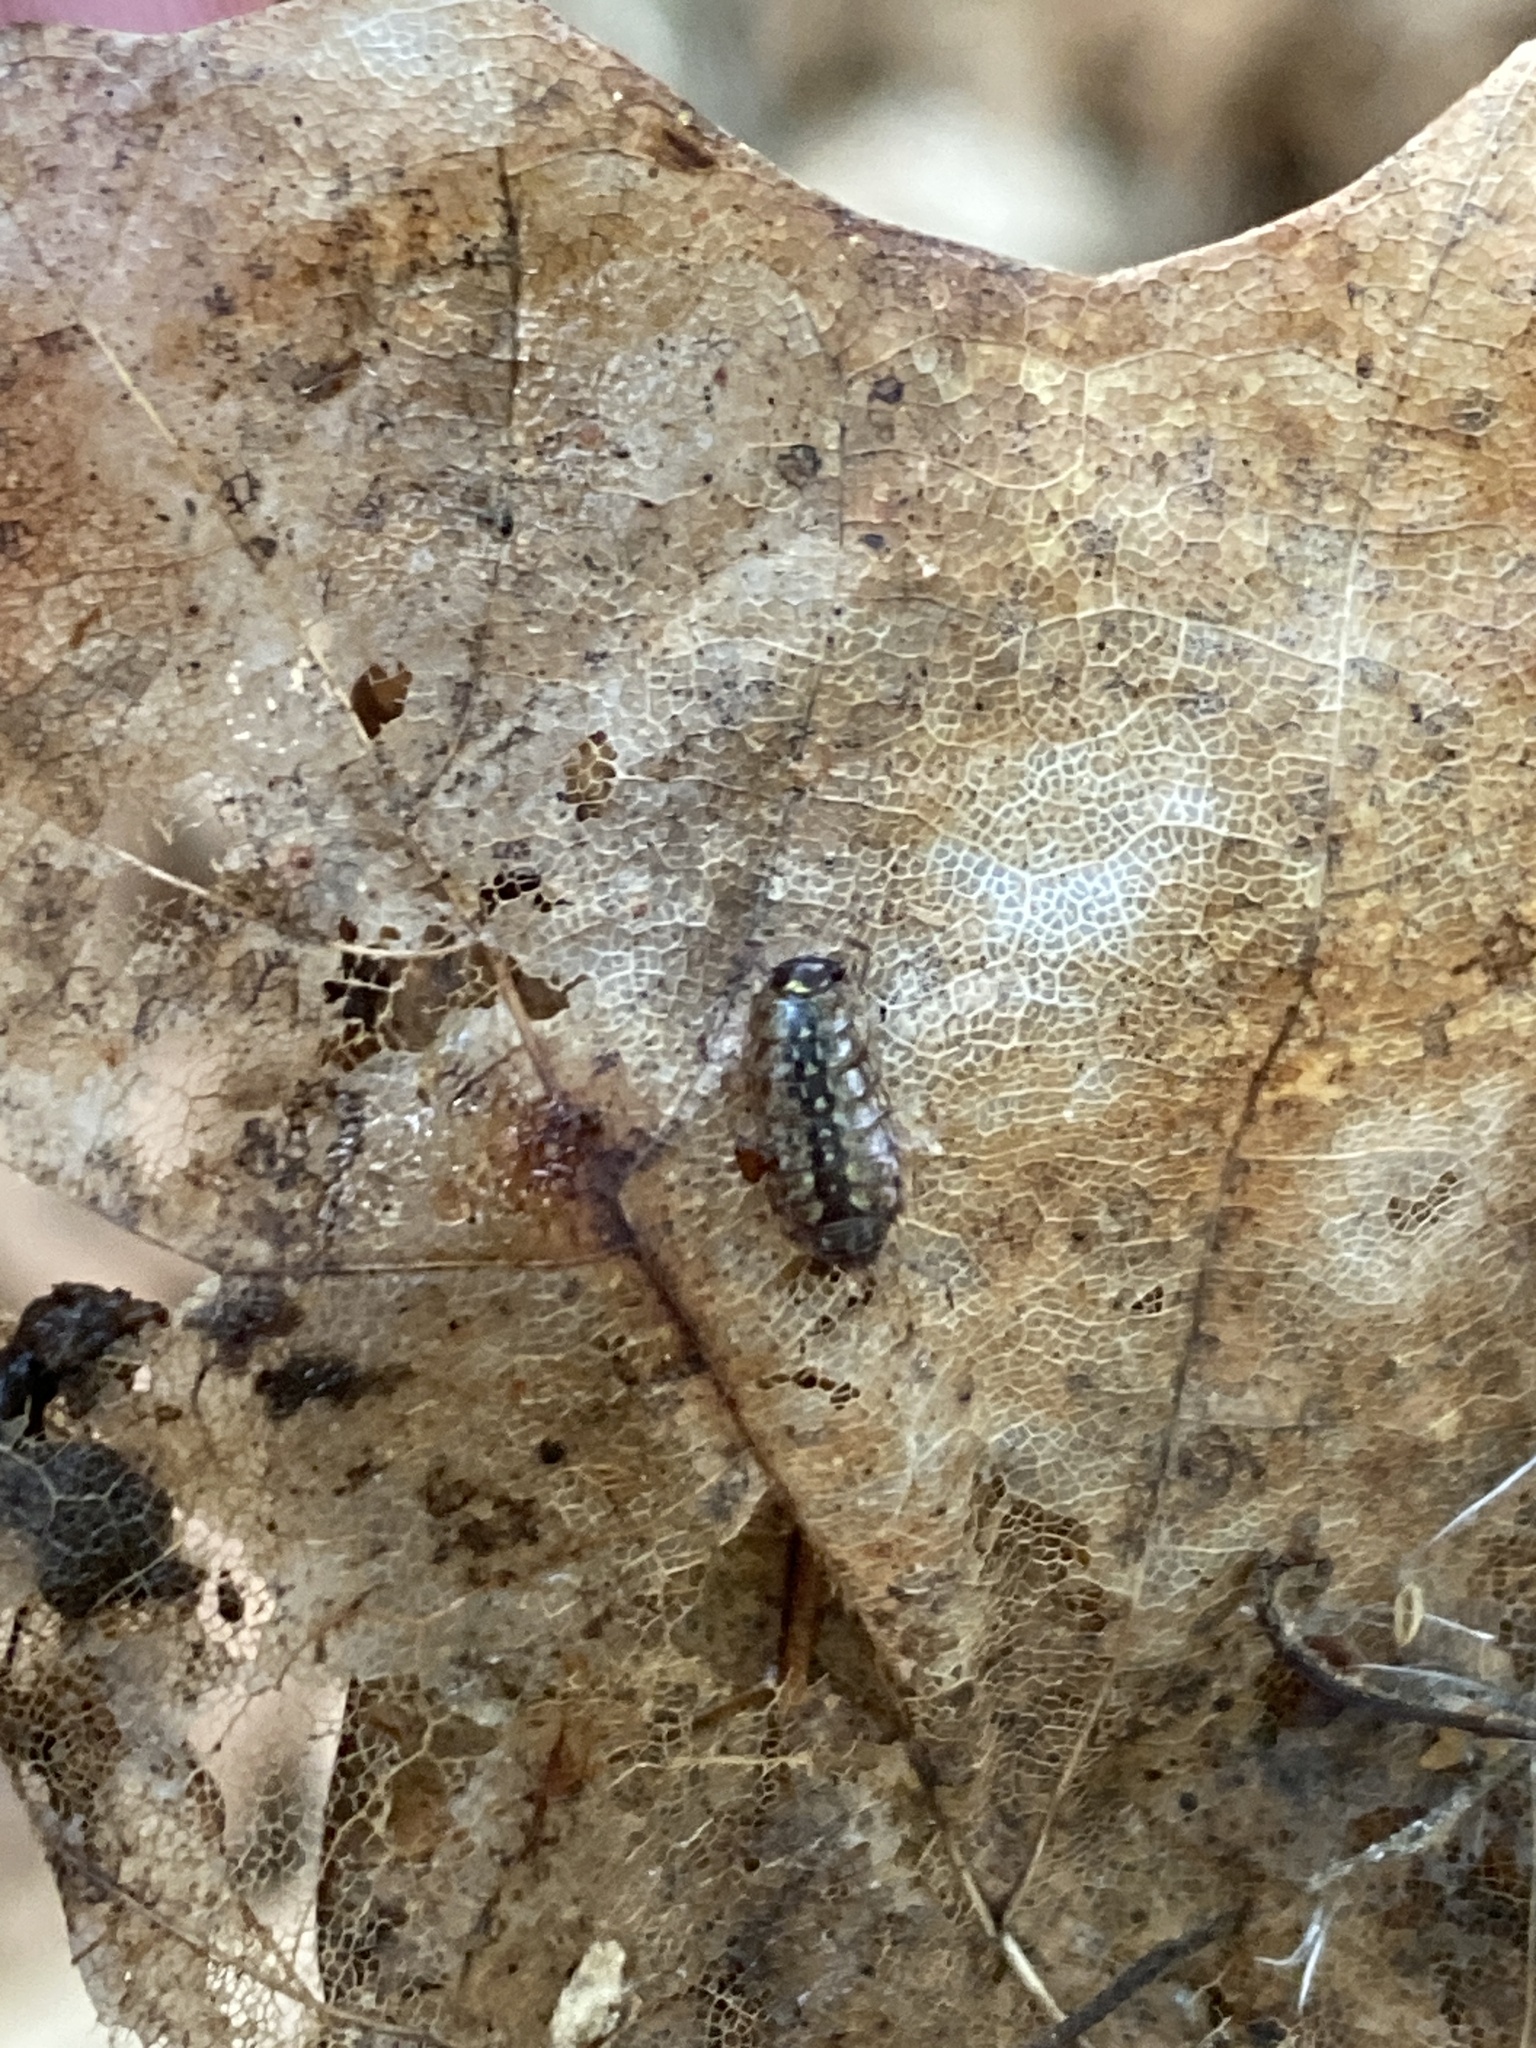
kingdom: Animalia
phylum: Arthropoda
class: Malacostraca
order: Isopoda
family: Philosciidae
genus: Philoscia
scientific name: Philoscia muscorum
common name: Common striped woodlouse
